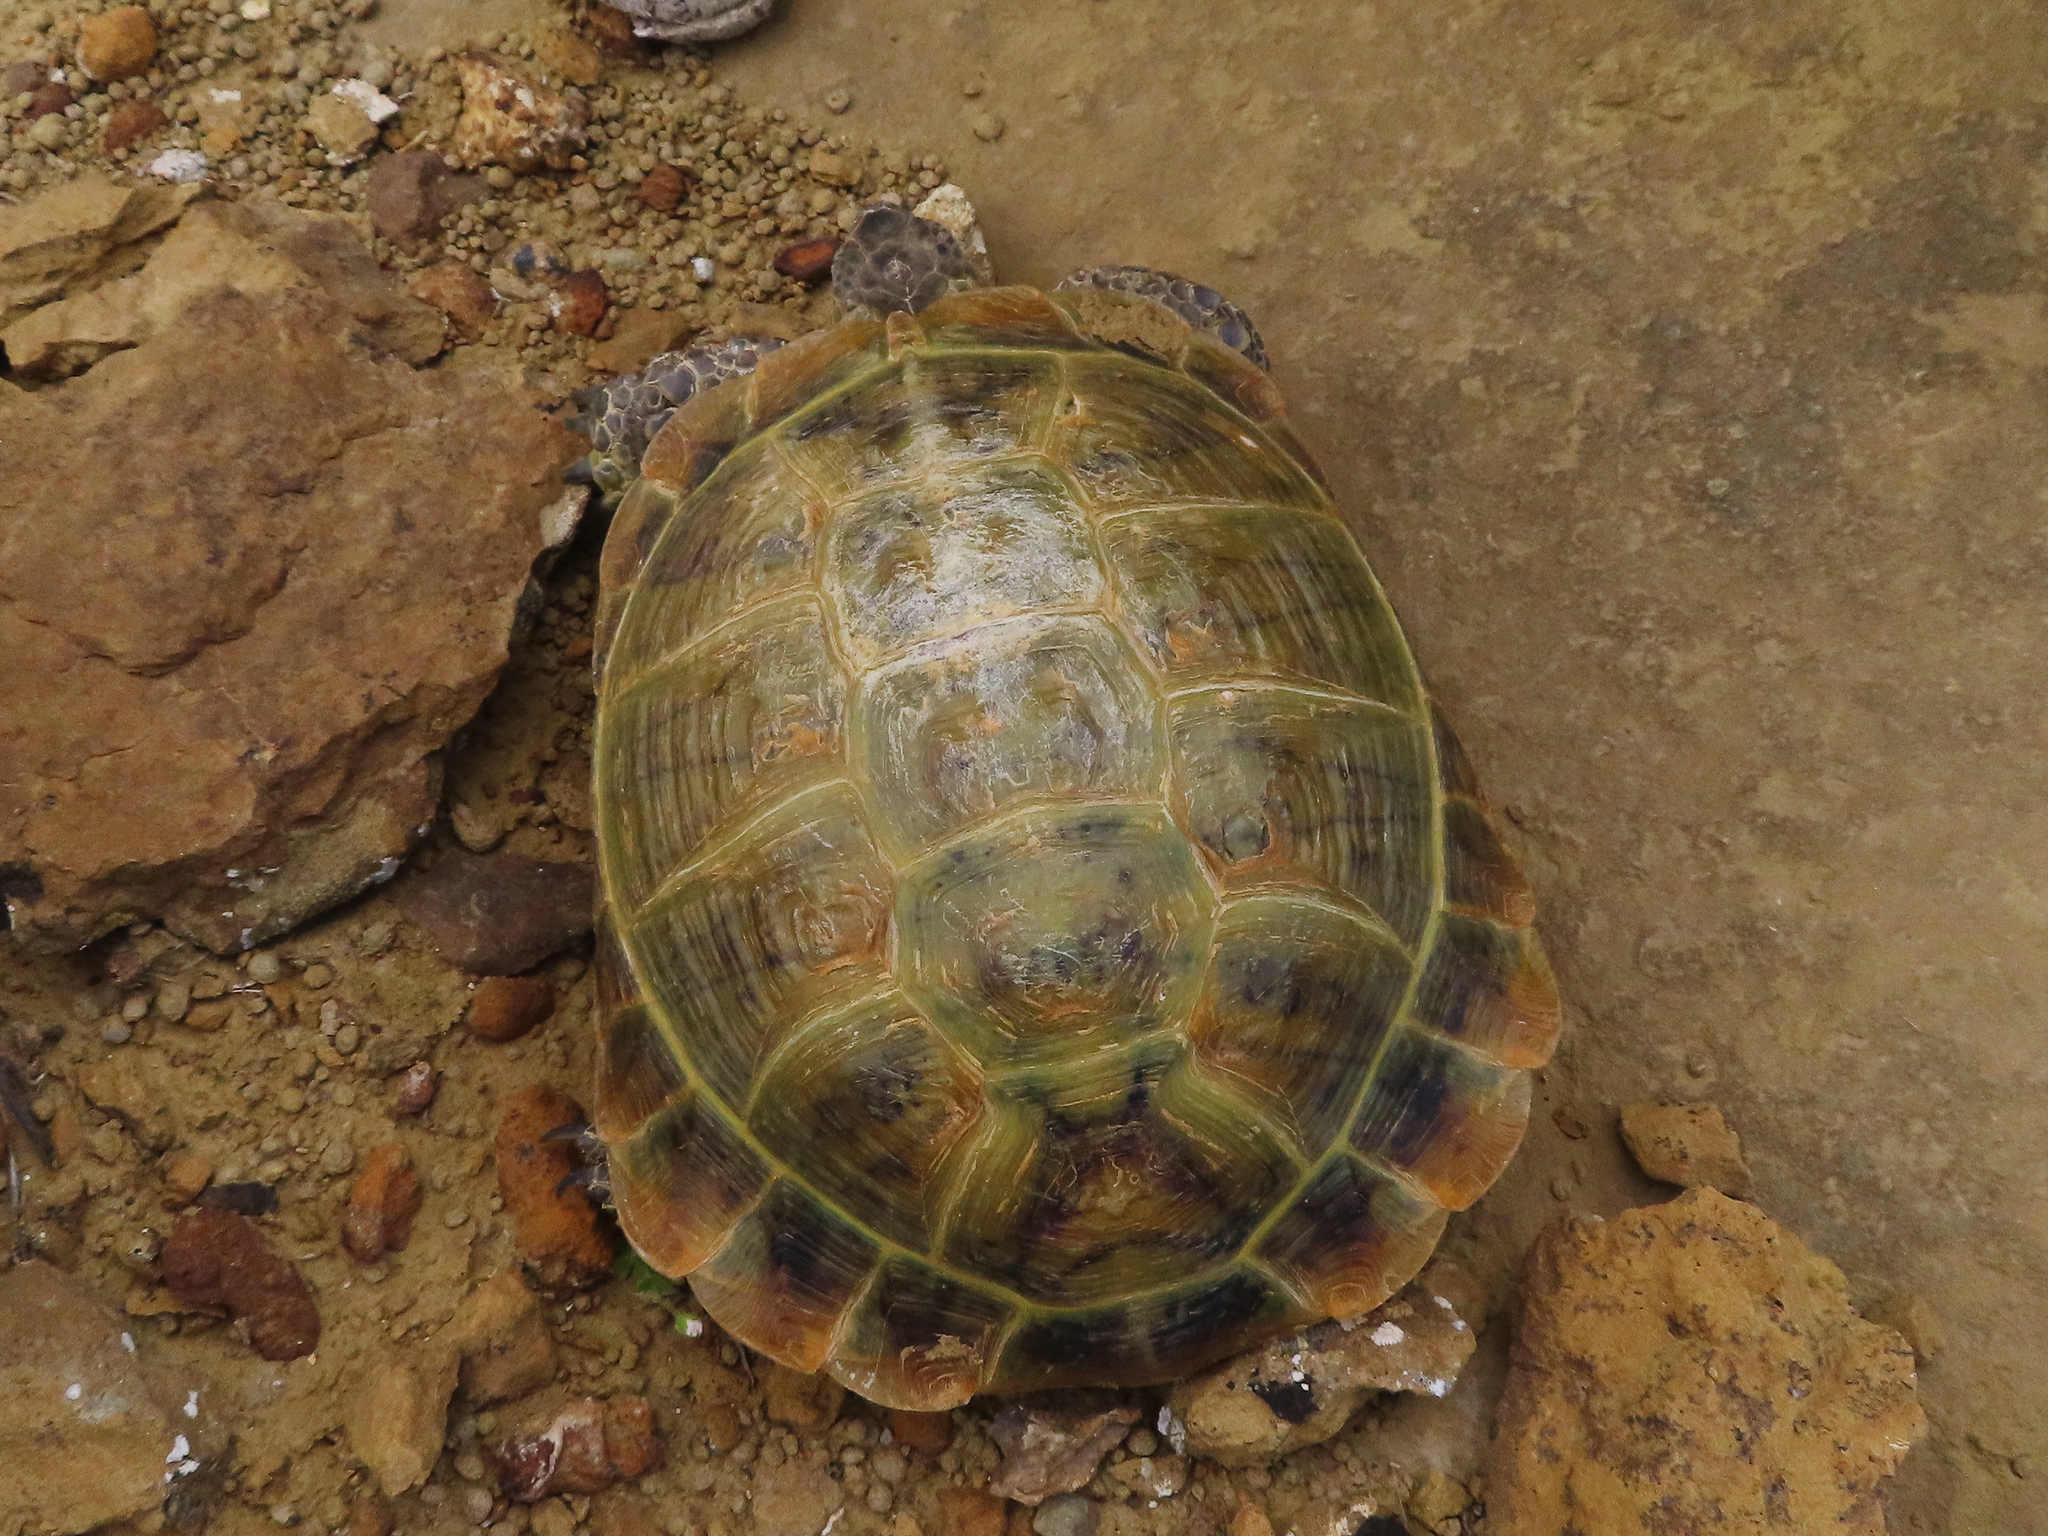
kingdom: Animalia
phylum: Chordata
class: Testudines
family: Testudinidae
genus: Testudo
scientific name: Testudo horsfieldii
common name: Central asia tortoise
